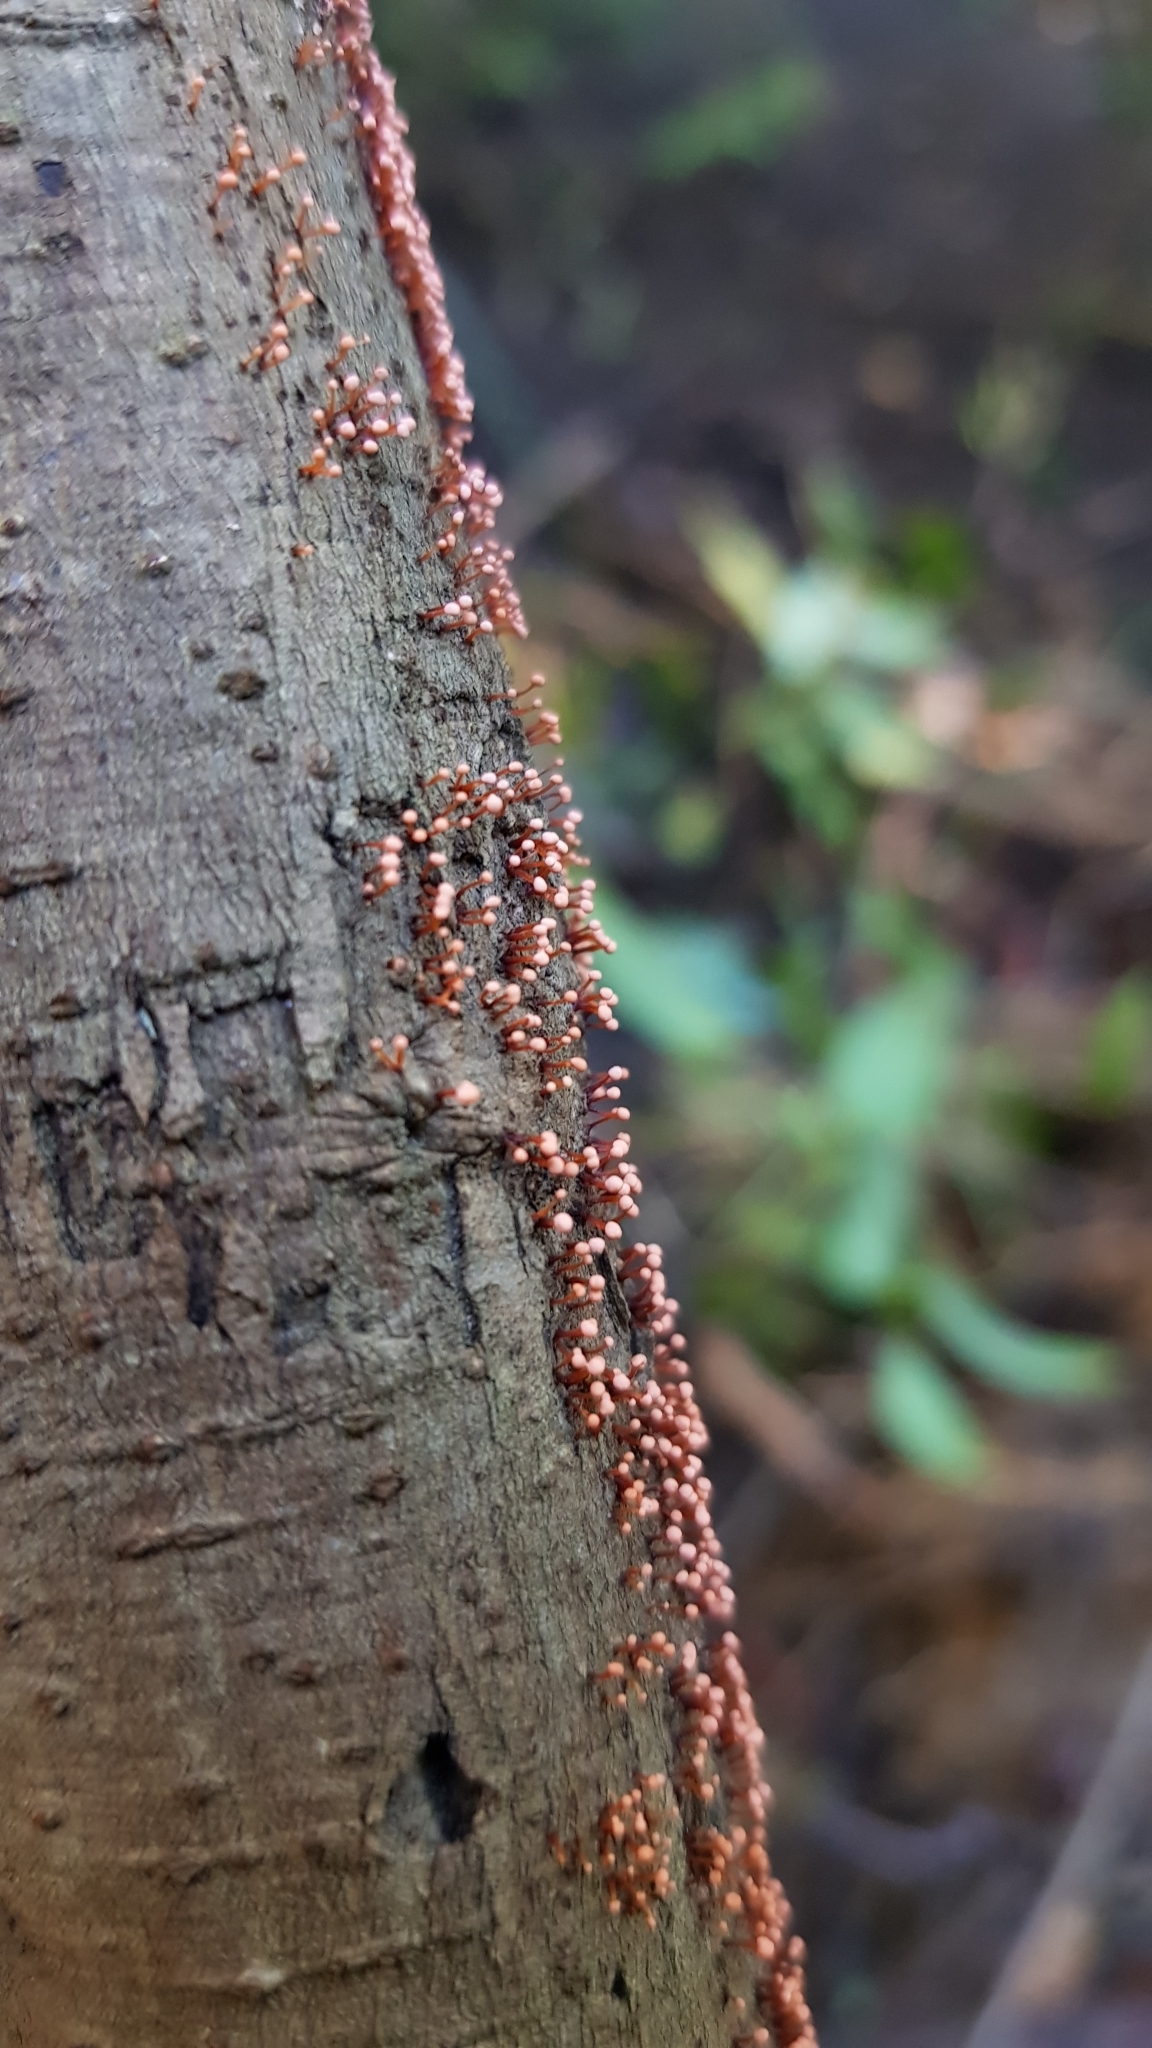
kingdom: Fungi
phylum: Ascomycota
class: Sordariomycetes
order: Hypocreales
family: Nectriaceae
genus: Nectria
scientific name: Nectria pseudotrichia
